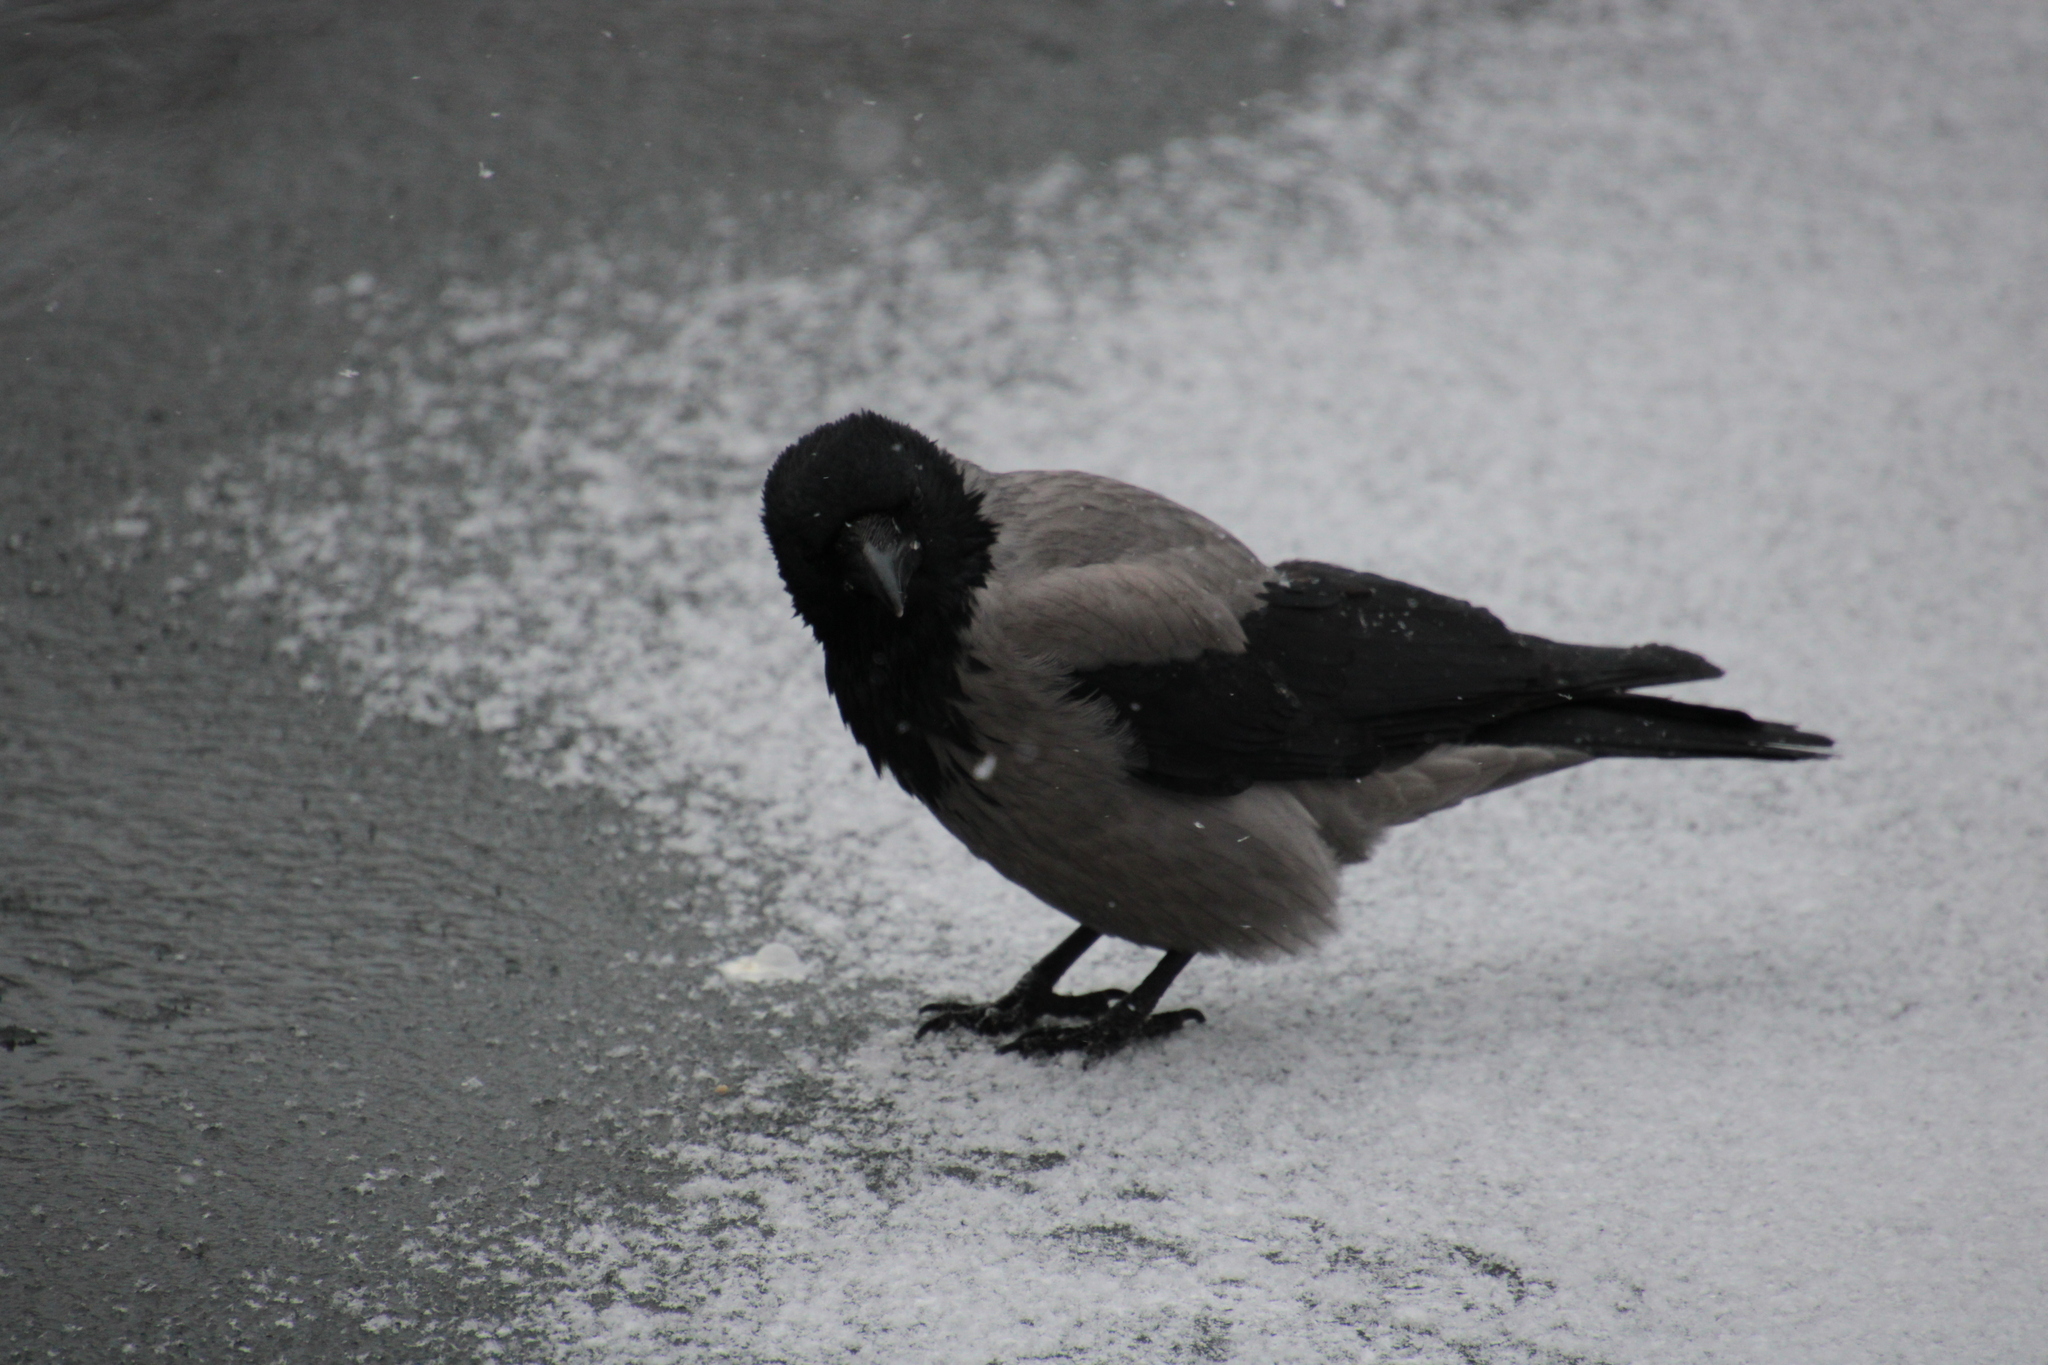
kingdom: Animalia
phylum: Chordata
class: Aves
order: Passeriformes
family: Corvidae
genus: Corvus
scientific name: Corvus cornix
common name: Hooded crow
